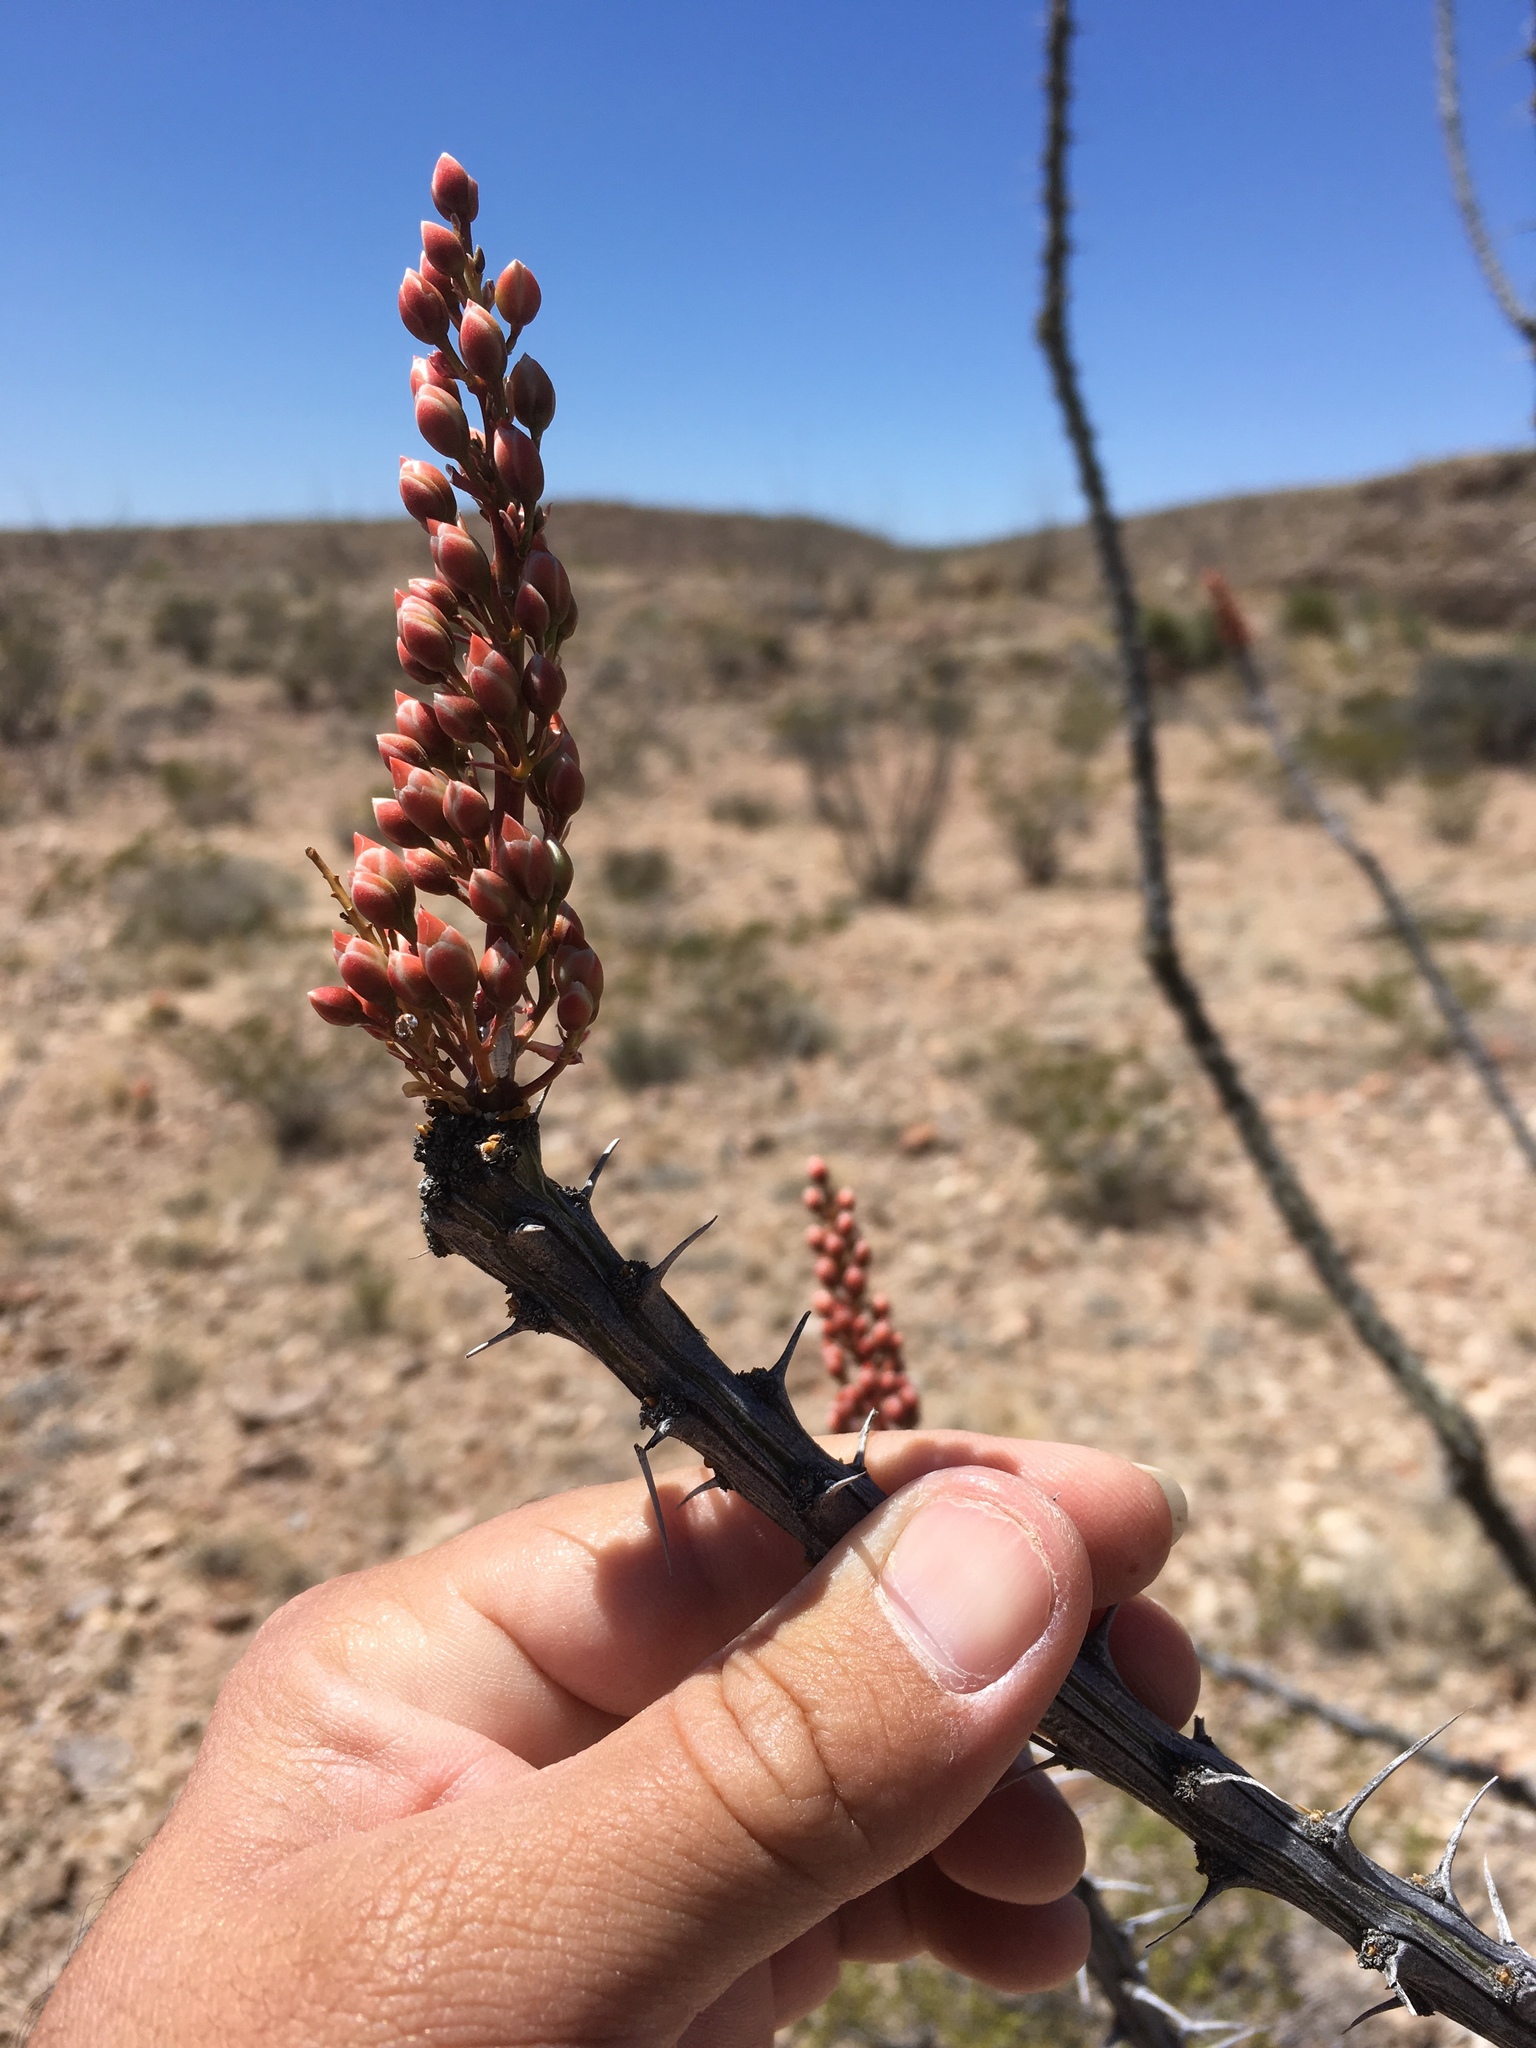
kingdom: Plantae
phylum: Tracheophyta
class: Magnoliopsida
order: Ericales
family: Fouquieriaceae
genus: Fouquieria
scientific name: Fouquieria splendens
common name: Vine-cactus
